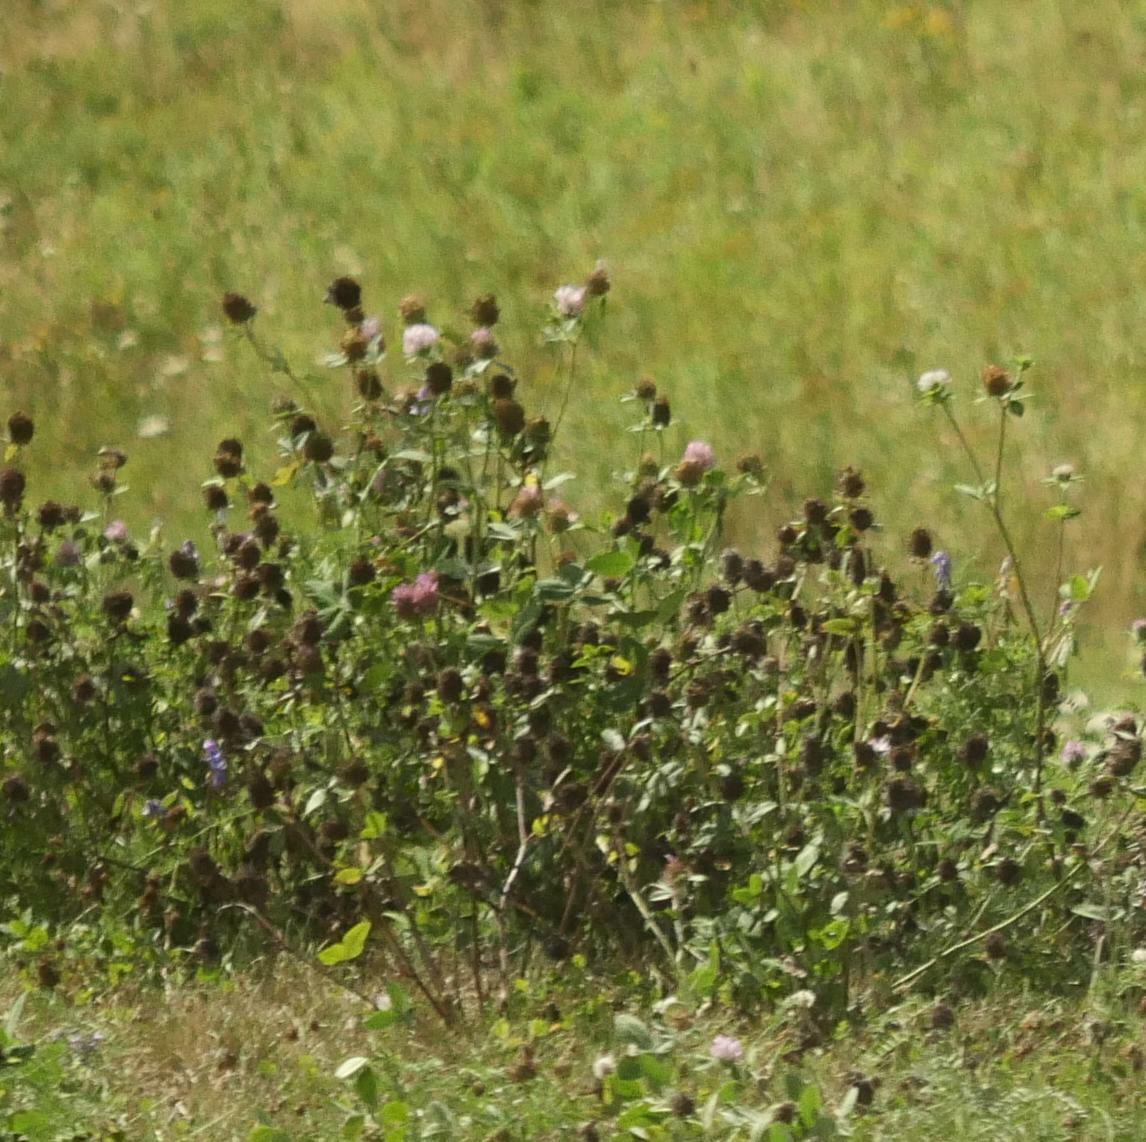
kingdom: Plantae
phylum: Tracheophyta
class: Magnoliopsida
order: Fabales
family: Fabaceae
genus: Trifolium
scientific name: Trifolium pratense
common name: Red clover
